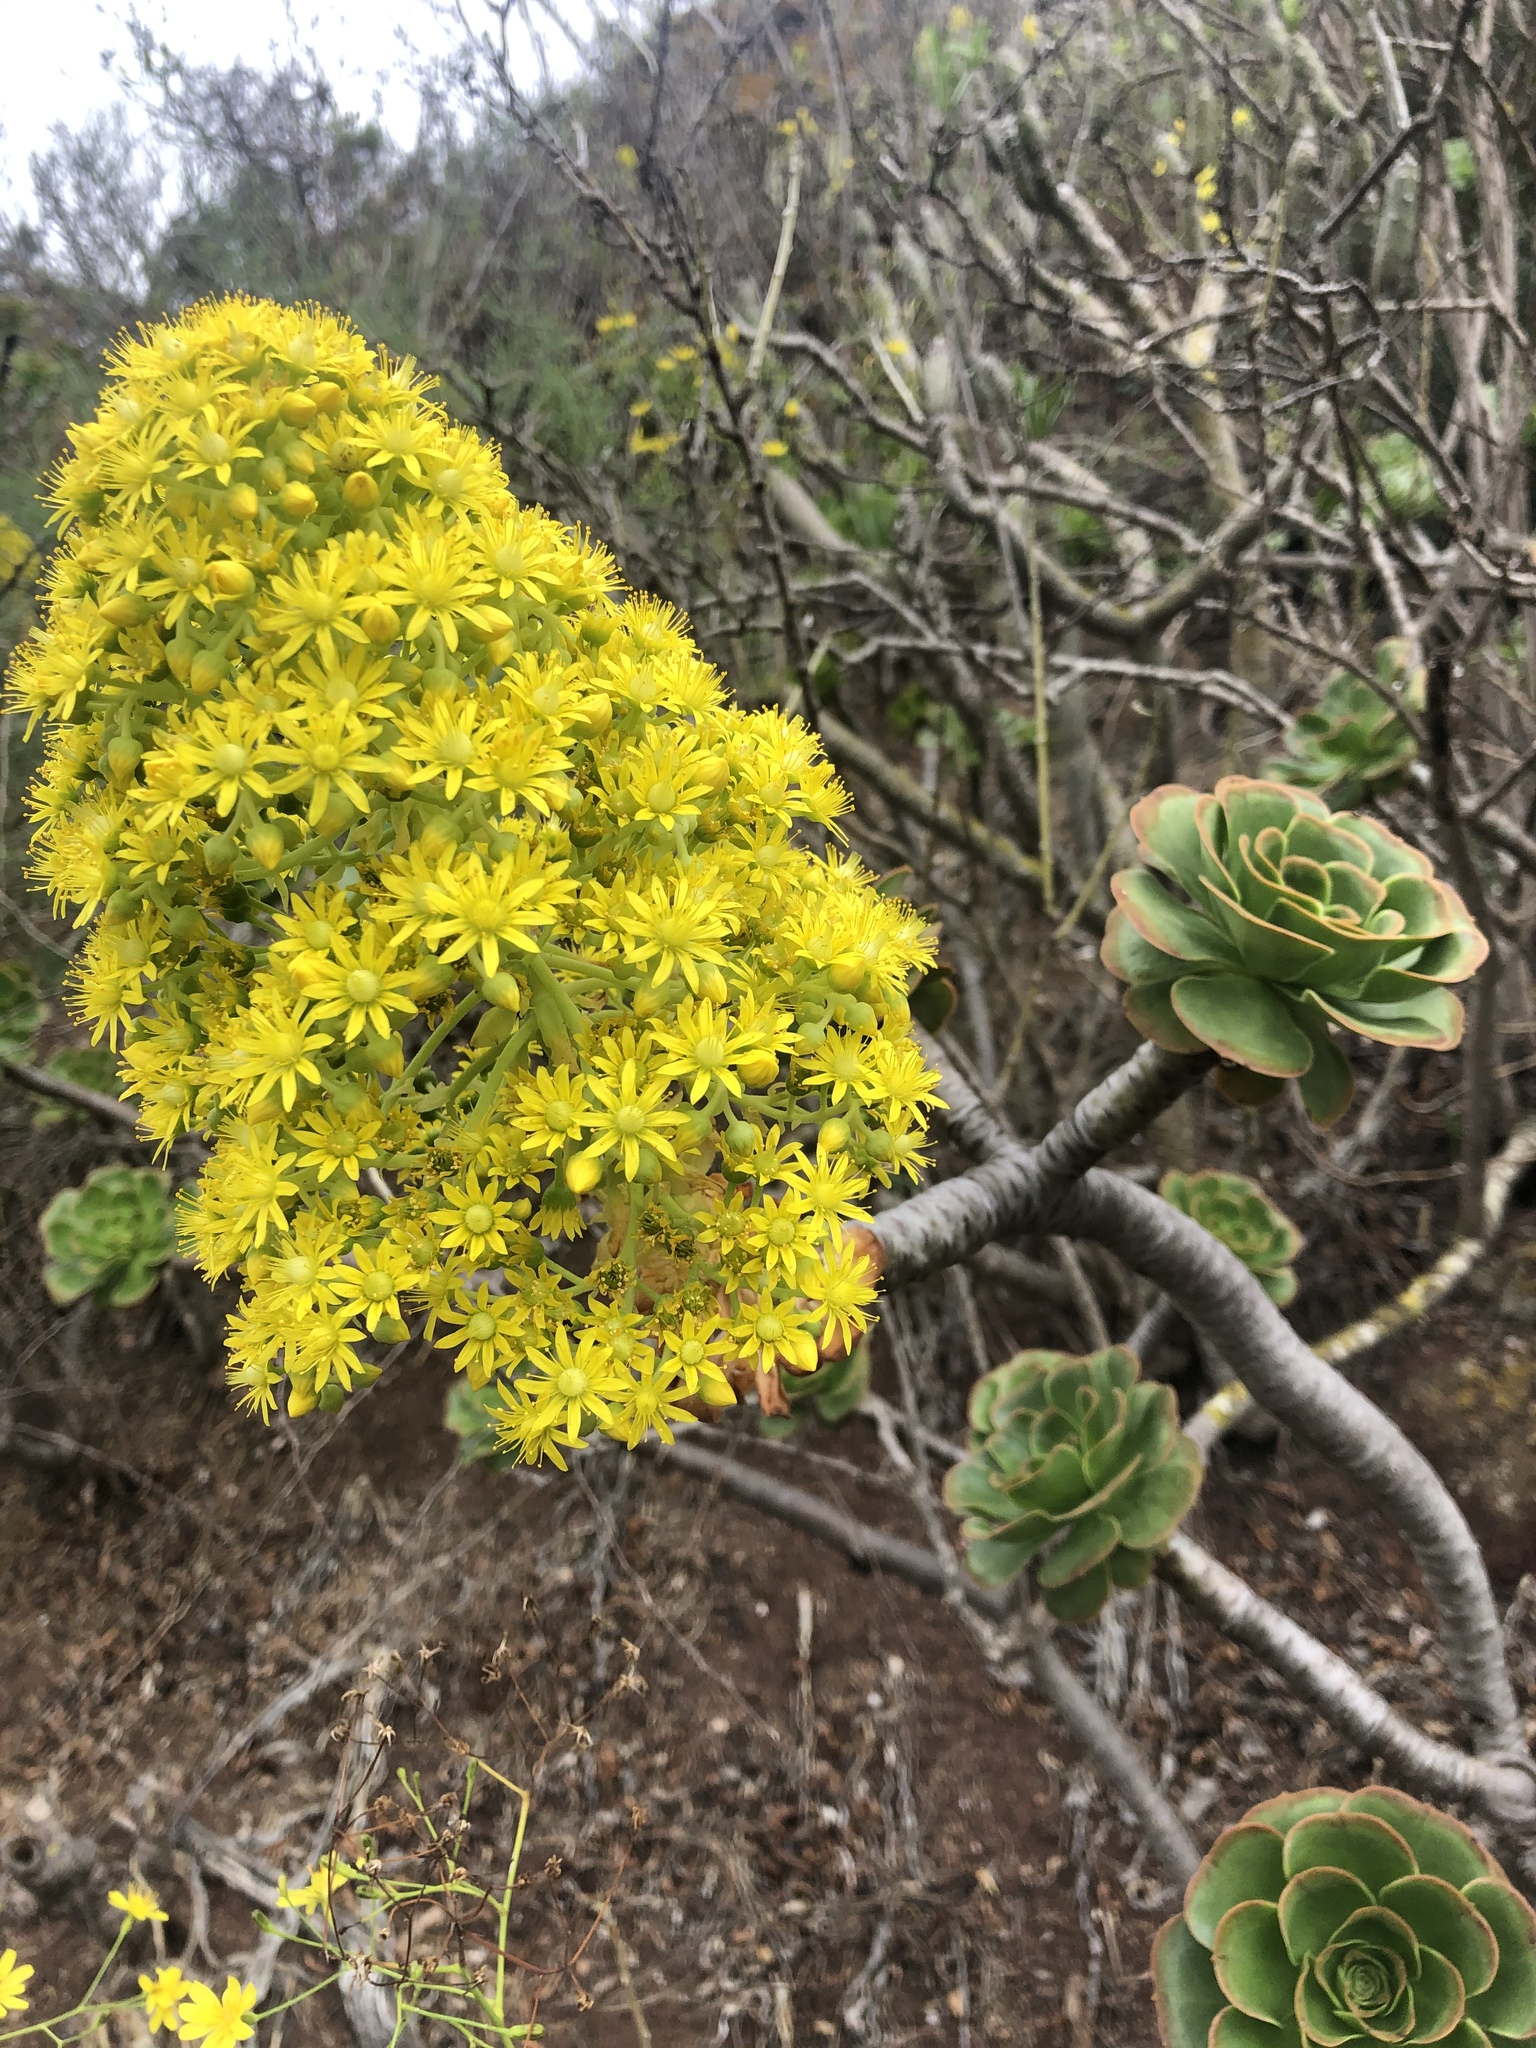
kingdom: Plantae
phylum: Tracheophyta
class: Magnoliopsida
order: Saxifragales
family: Crassulaceae
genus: Aeonium
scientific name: Aeonium arboreum
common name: Tree aeonium
